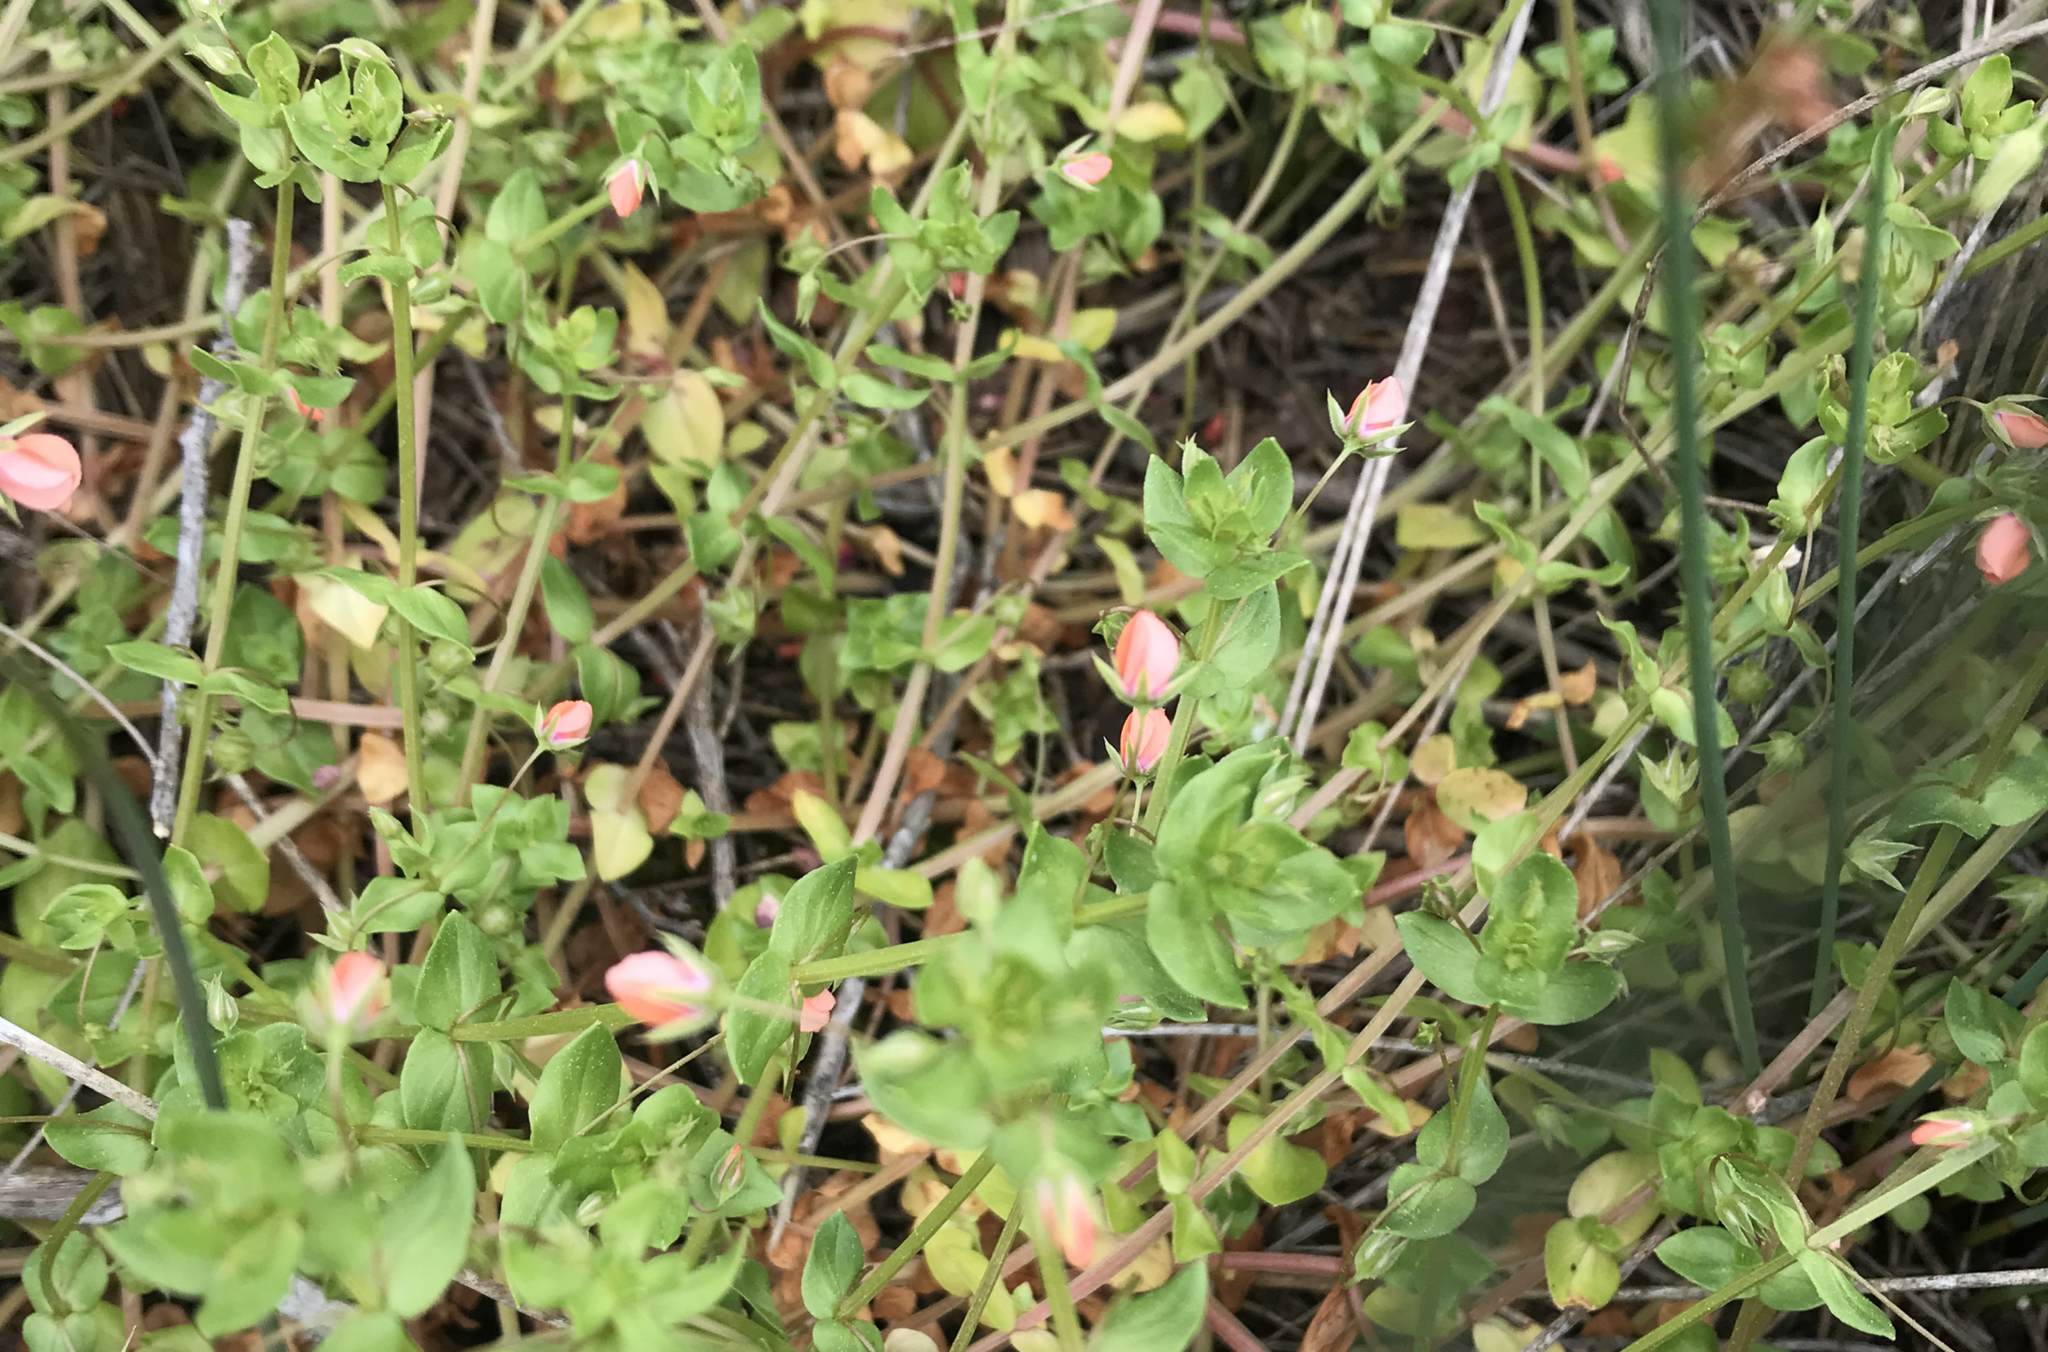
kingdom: Plantae
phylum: Tracheophyta
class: Magnoliopsida
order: Ericales
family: Primulaceae
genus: Lysimachia
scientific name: Lysimachia arvensis
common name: Scarlet pimpernel
